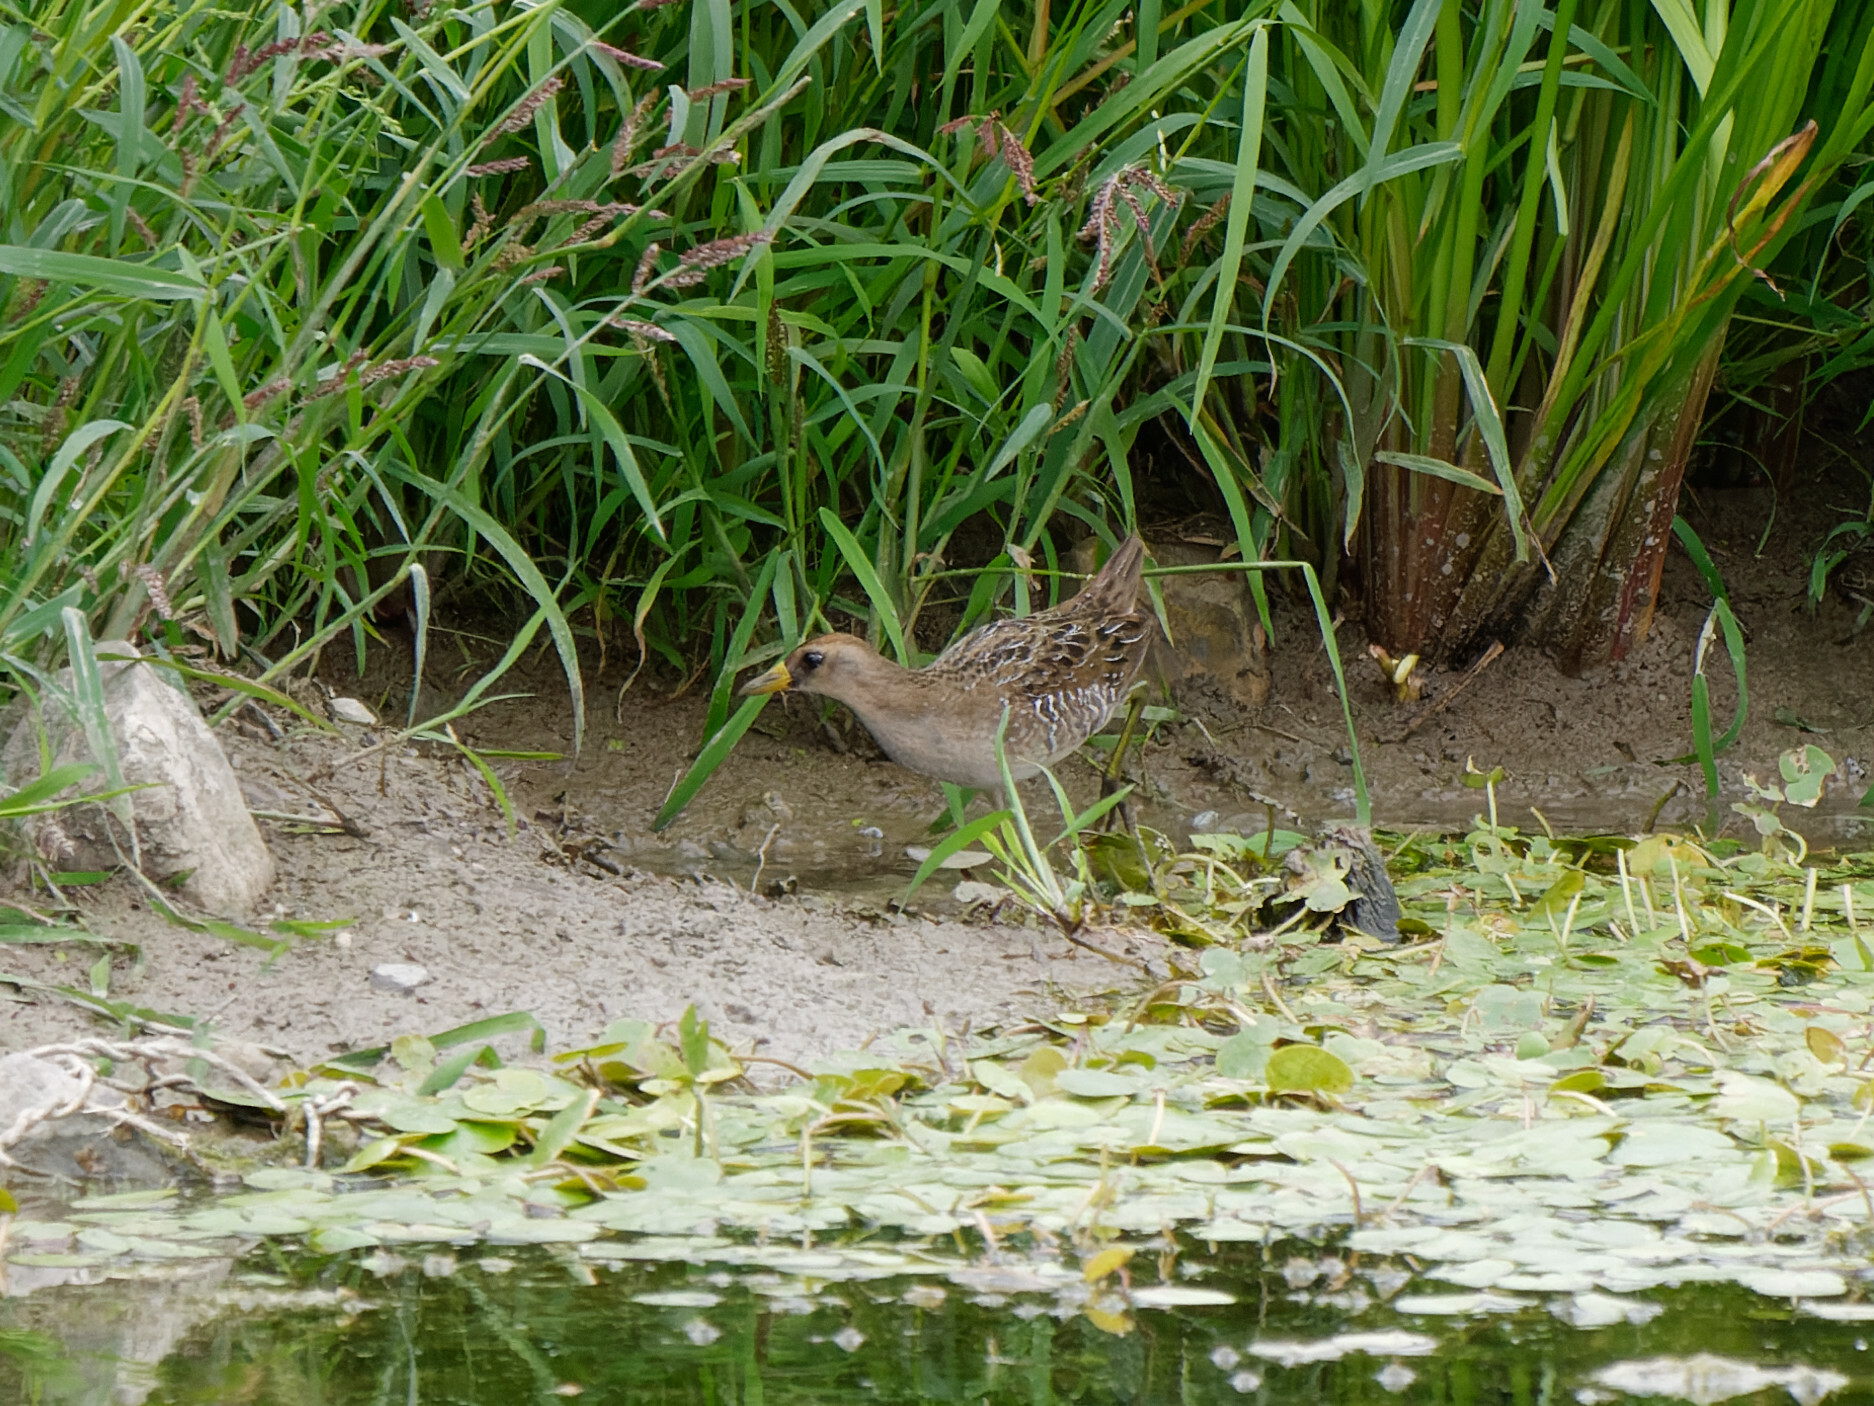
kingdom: Animalia
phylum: Chordata
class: Aves
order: Gruiformes
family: Rallidae
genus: Porzana
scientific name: Porzana carolina
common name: Sora
